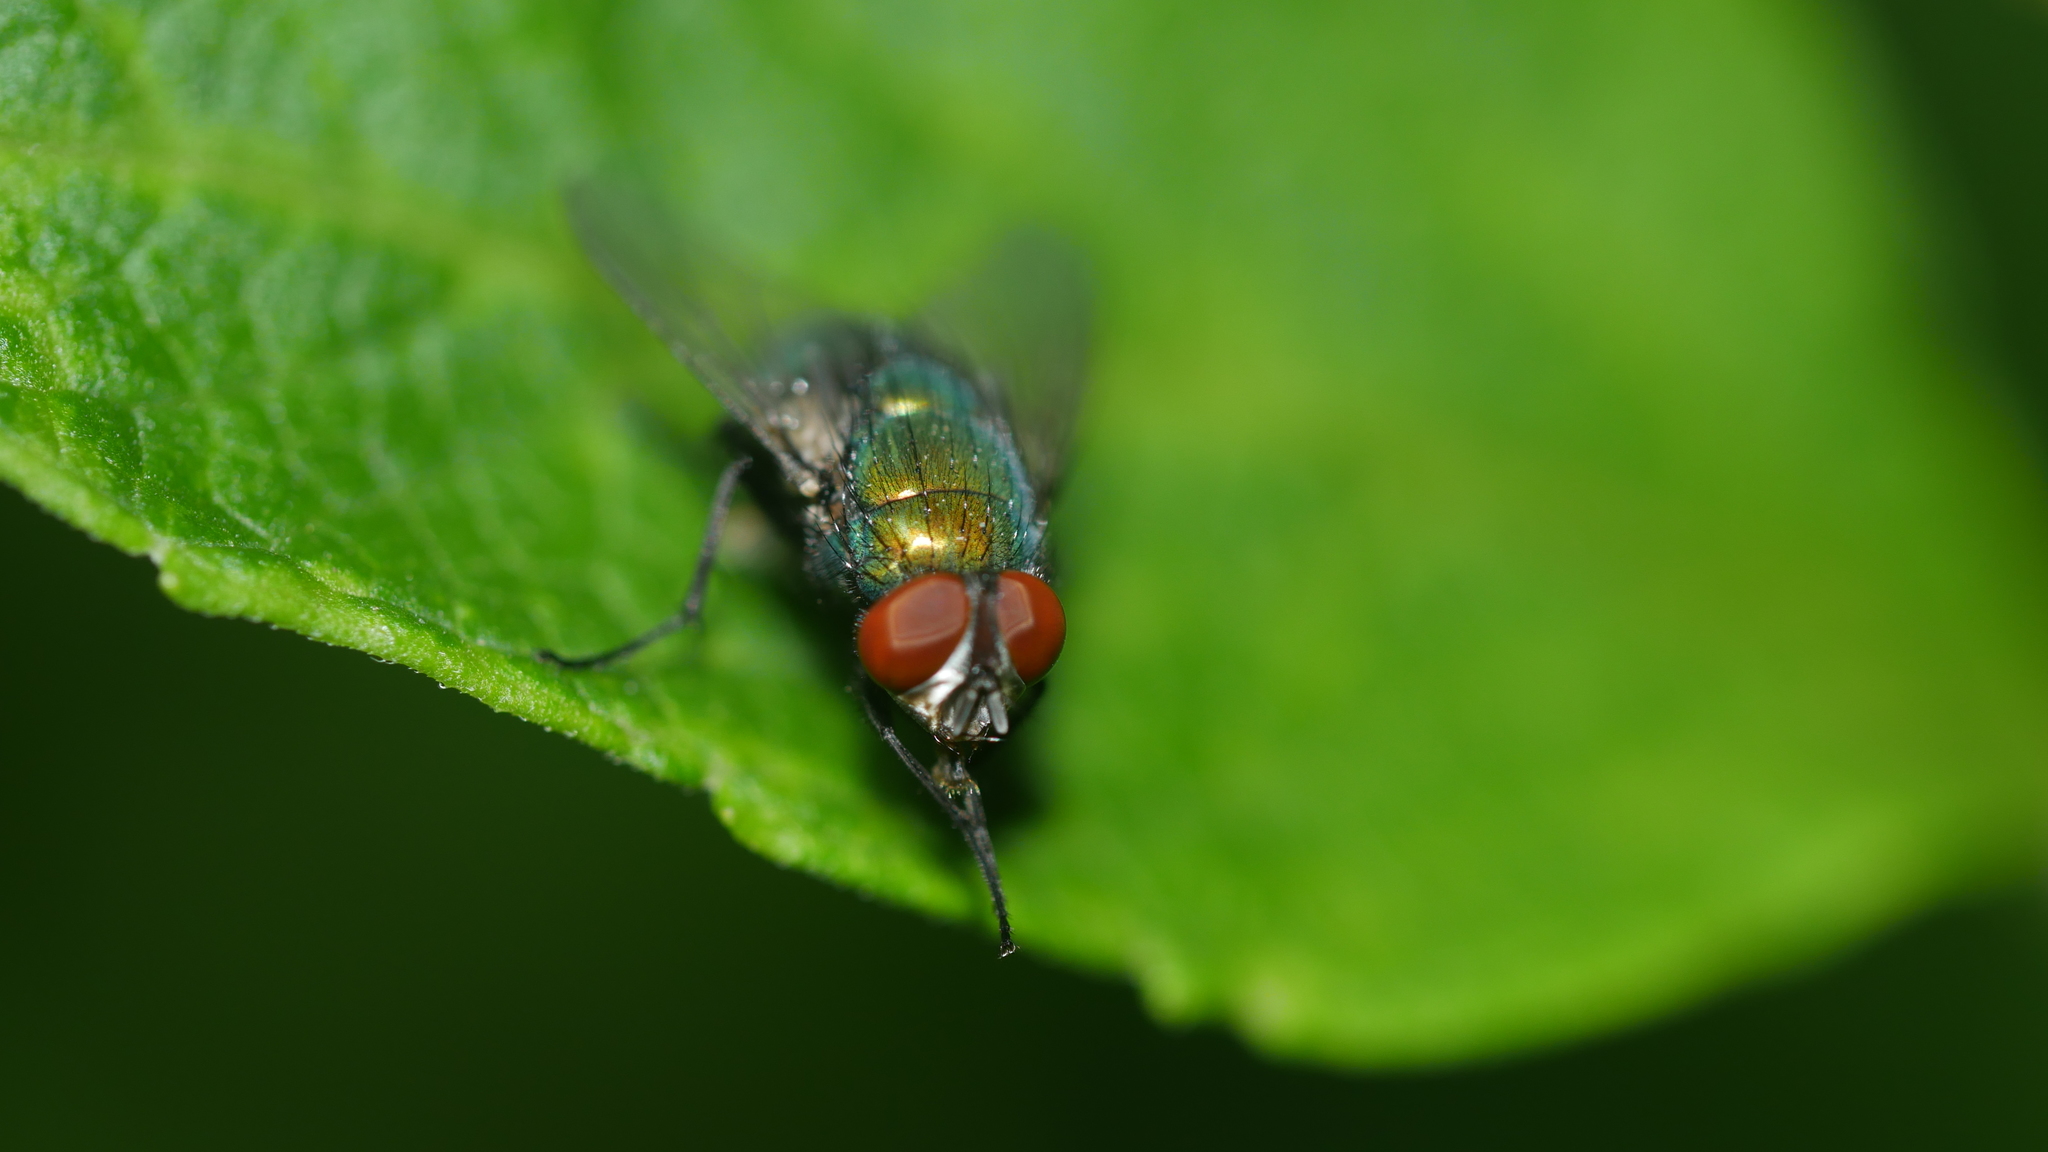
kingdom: Animalia
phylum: Arthropoda
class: Insecta
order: Diptera
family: Calliphoridae
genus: Lucilia
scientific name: Lucilia sericata
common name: Blow fly
